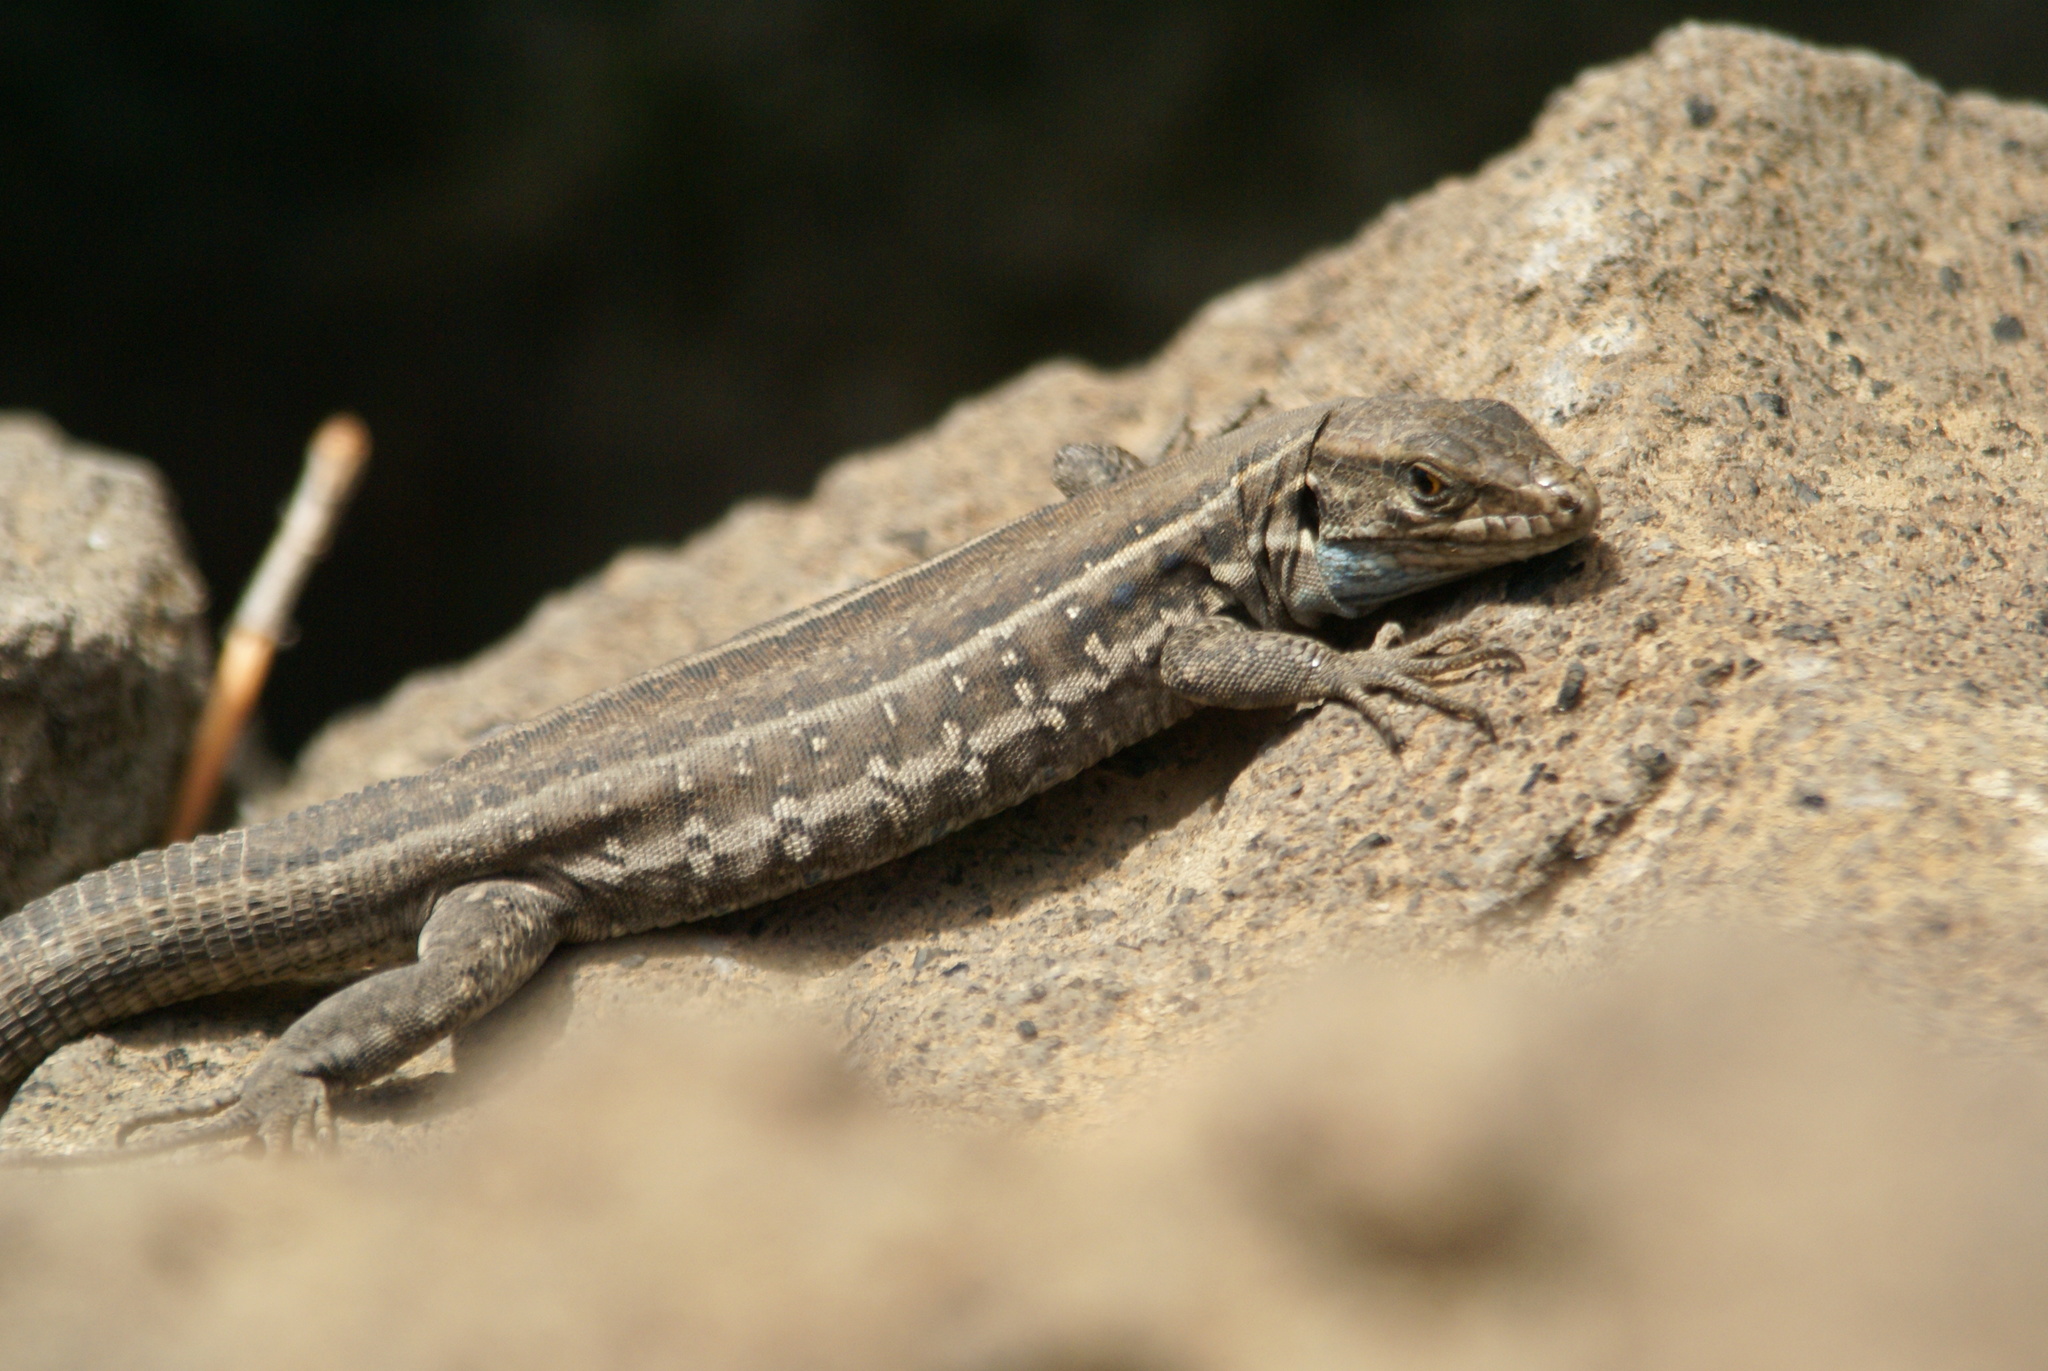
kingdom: Animalia
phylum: Chordata
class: Squamata
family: Lacertidae
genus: Gallotia
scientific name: Gallotia galloti
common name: Gallot's lizard
